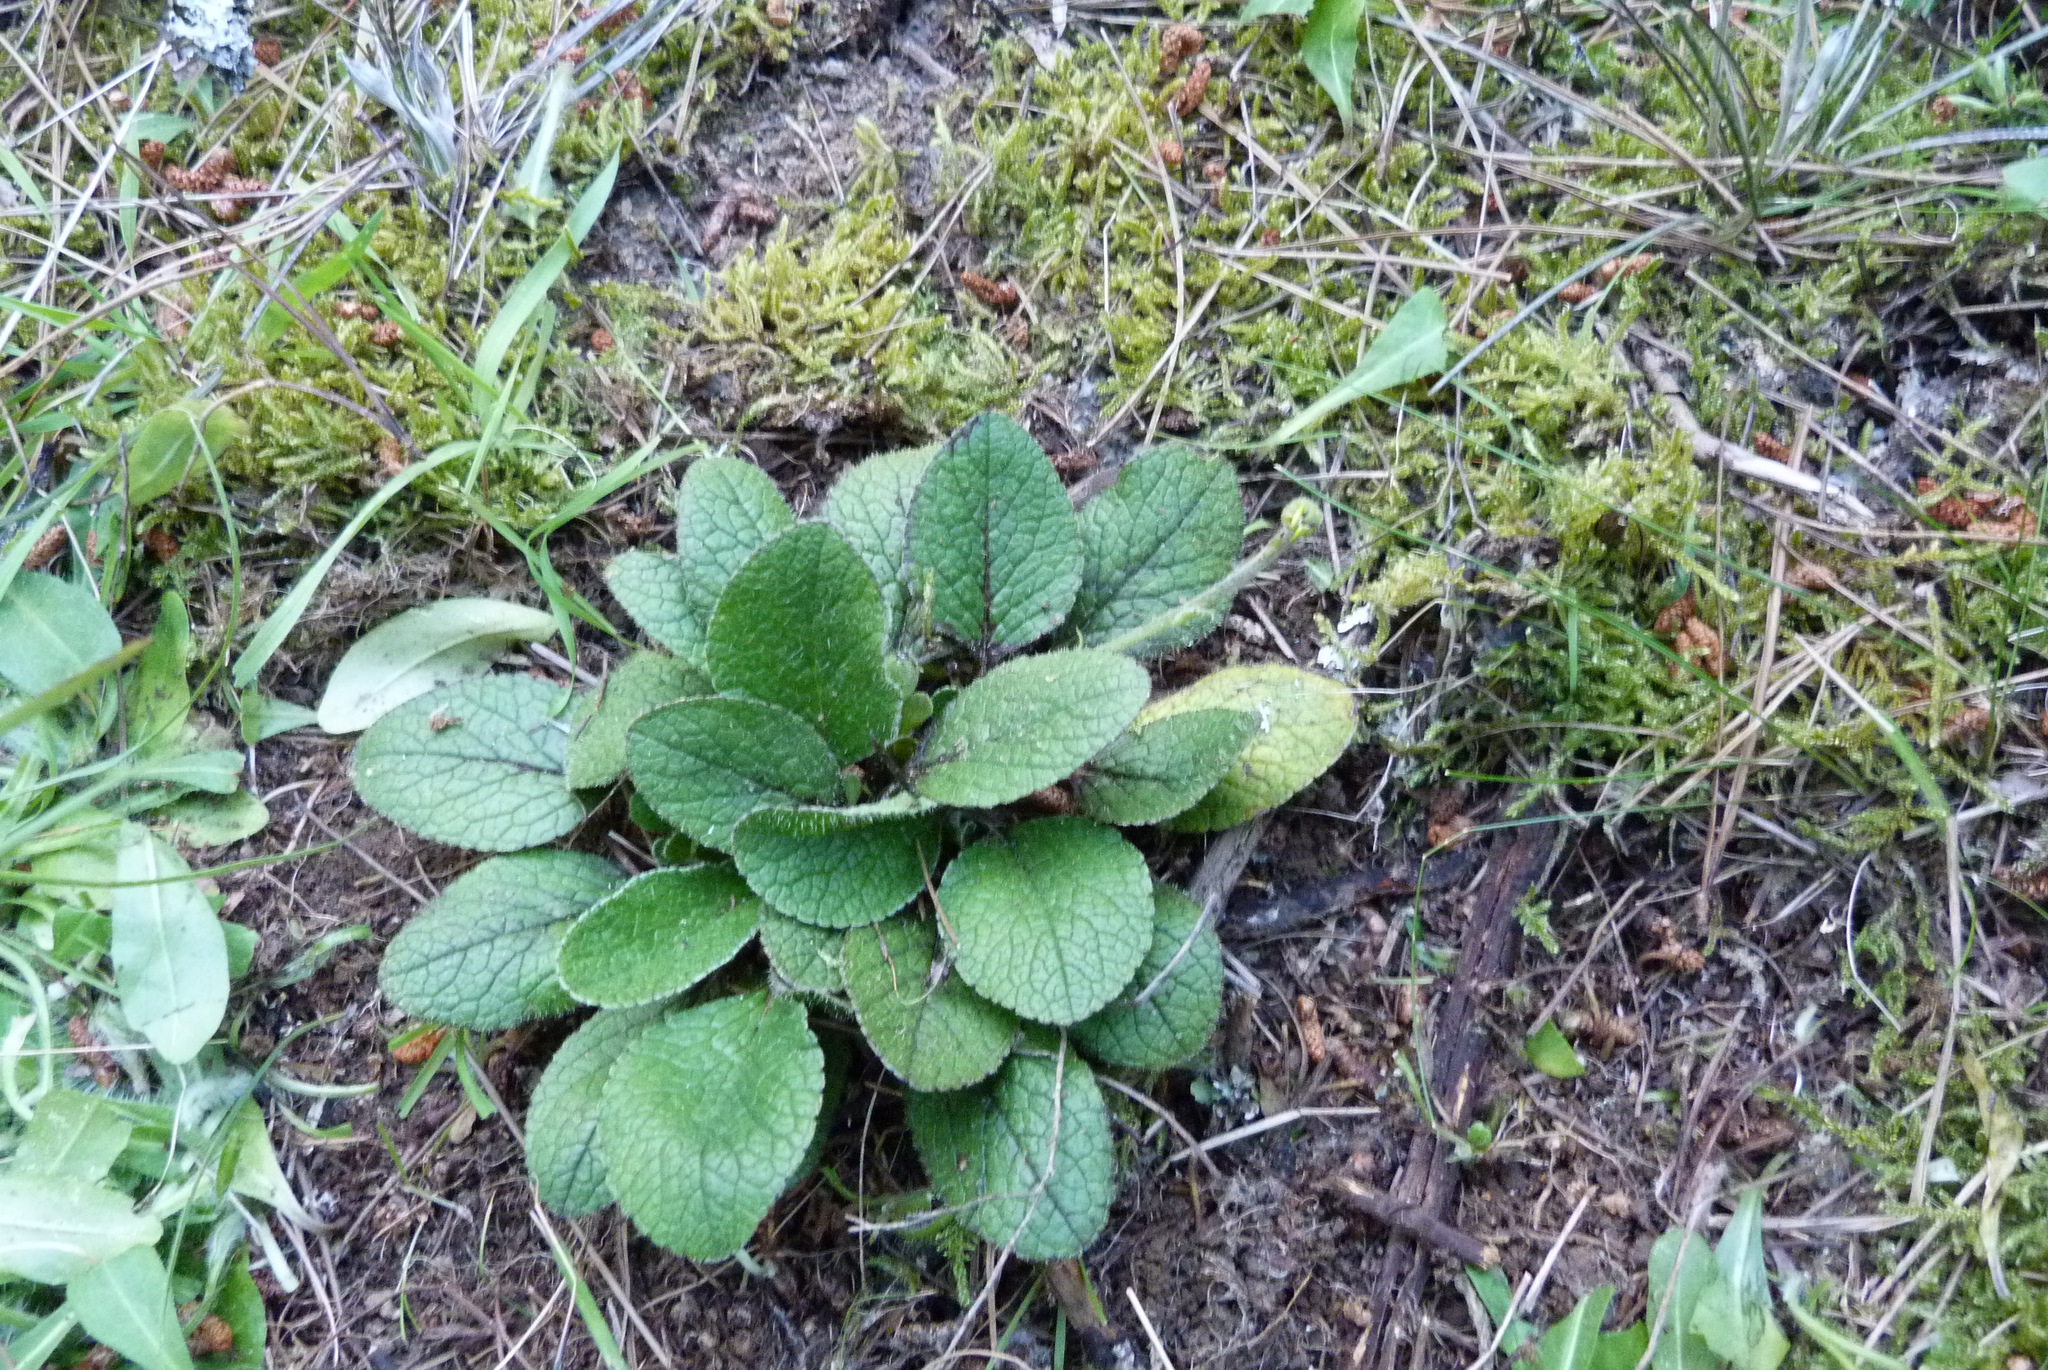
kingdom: Plantae
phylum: Tracheophyta
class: Magnoliopsida
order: Asterales
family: Asteraceae
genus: Brachyglottis
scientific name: Brachyglottis bellidioides
